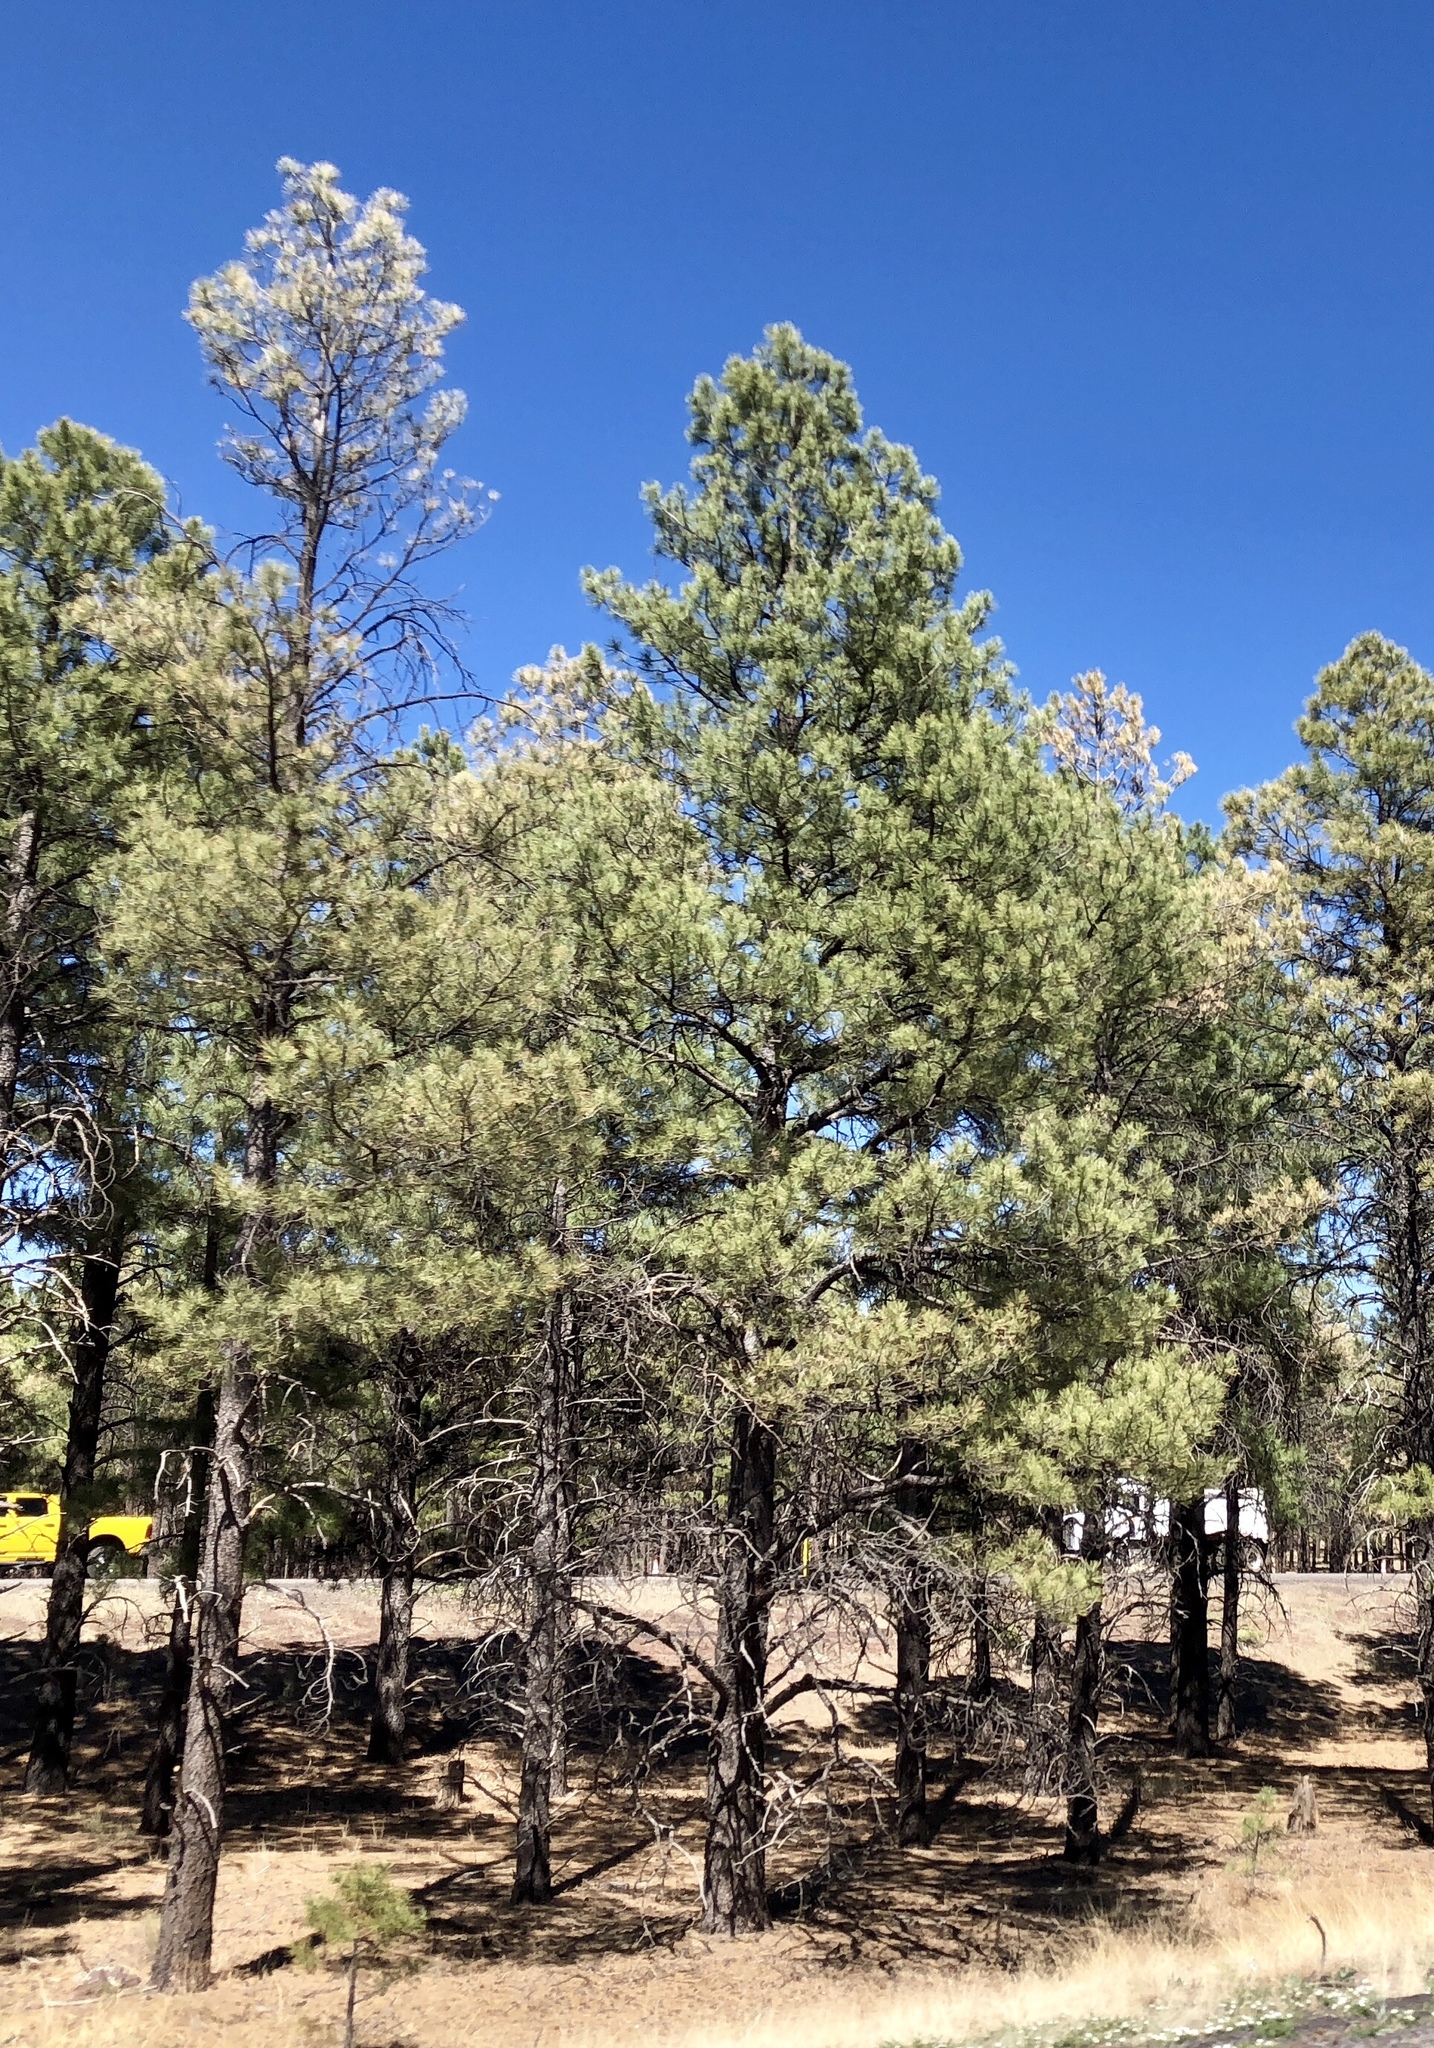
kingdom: Plantae
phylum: Tracheophyta
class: Pinopsida
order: Pinales
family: Pinaceae
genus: Pinus
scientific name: Pinus ponderosa
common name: Western yellow-pine
